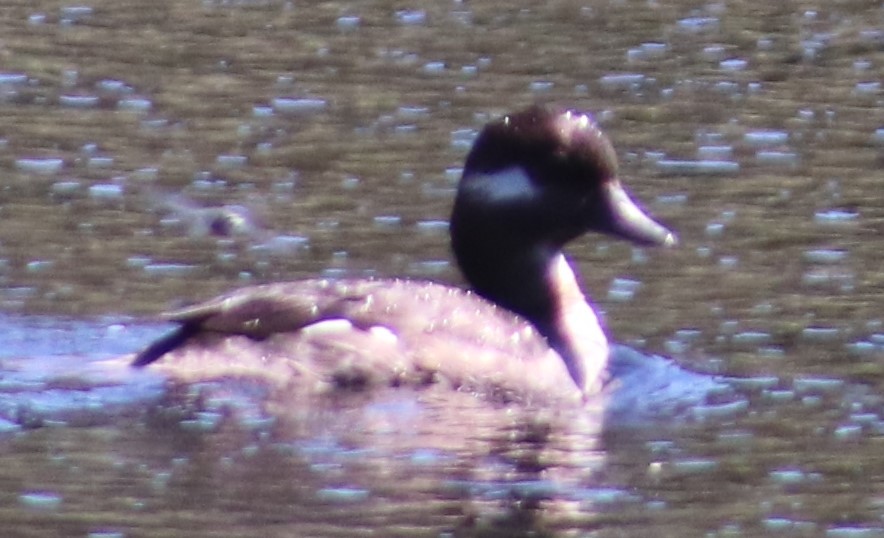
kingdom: Animalia
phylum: Chordata
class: Aves
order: Anseriformes
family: Anatidae
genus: Bucephala
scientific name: Bucephala albeola
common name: Bufflehead
